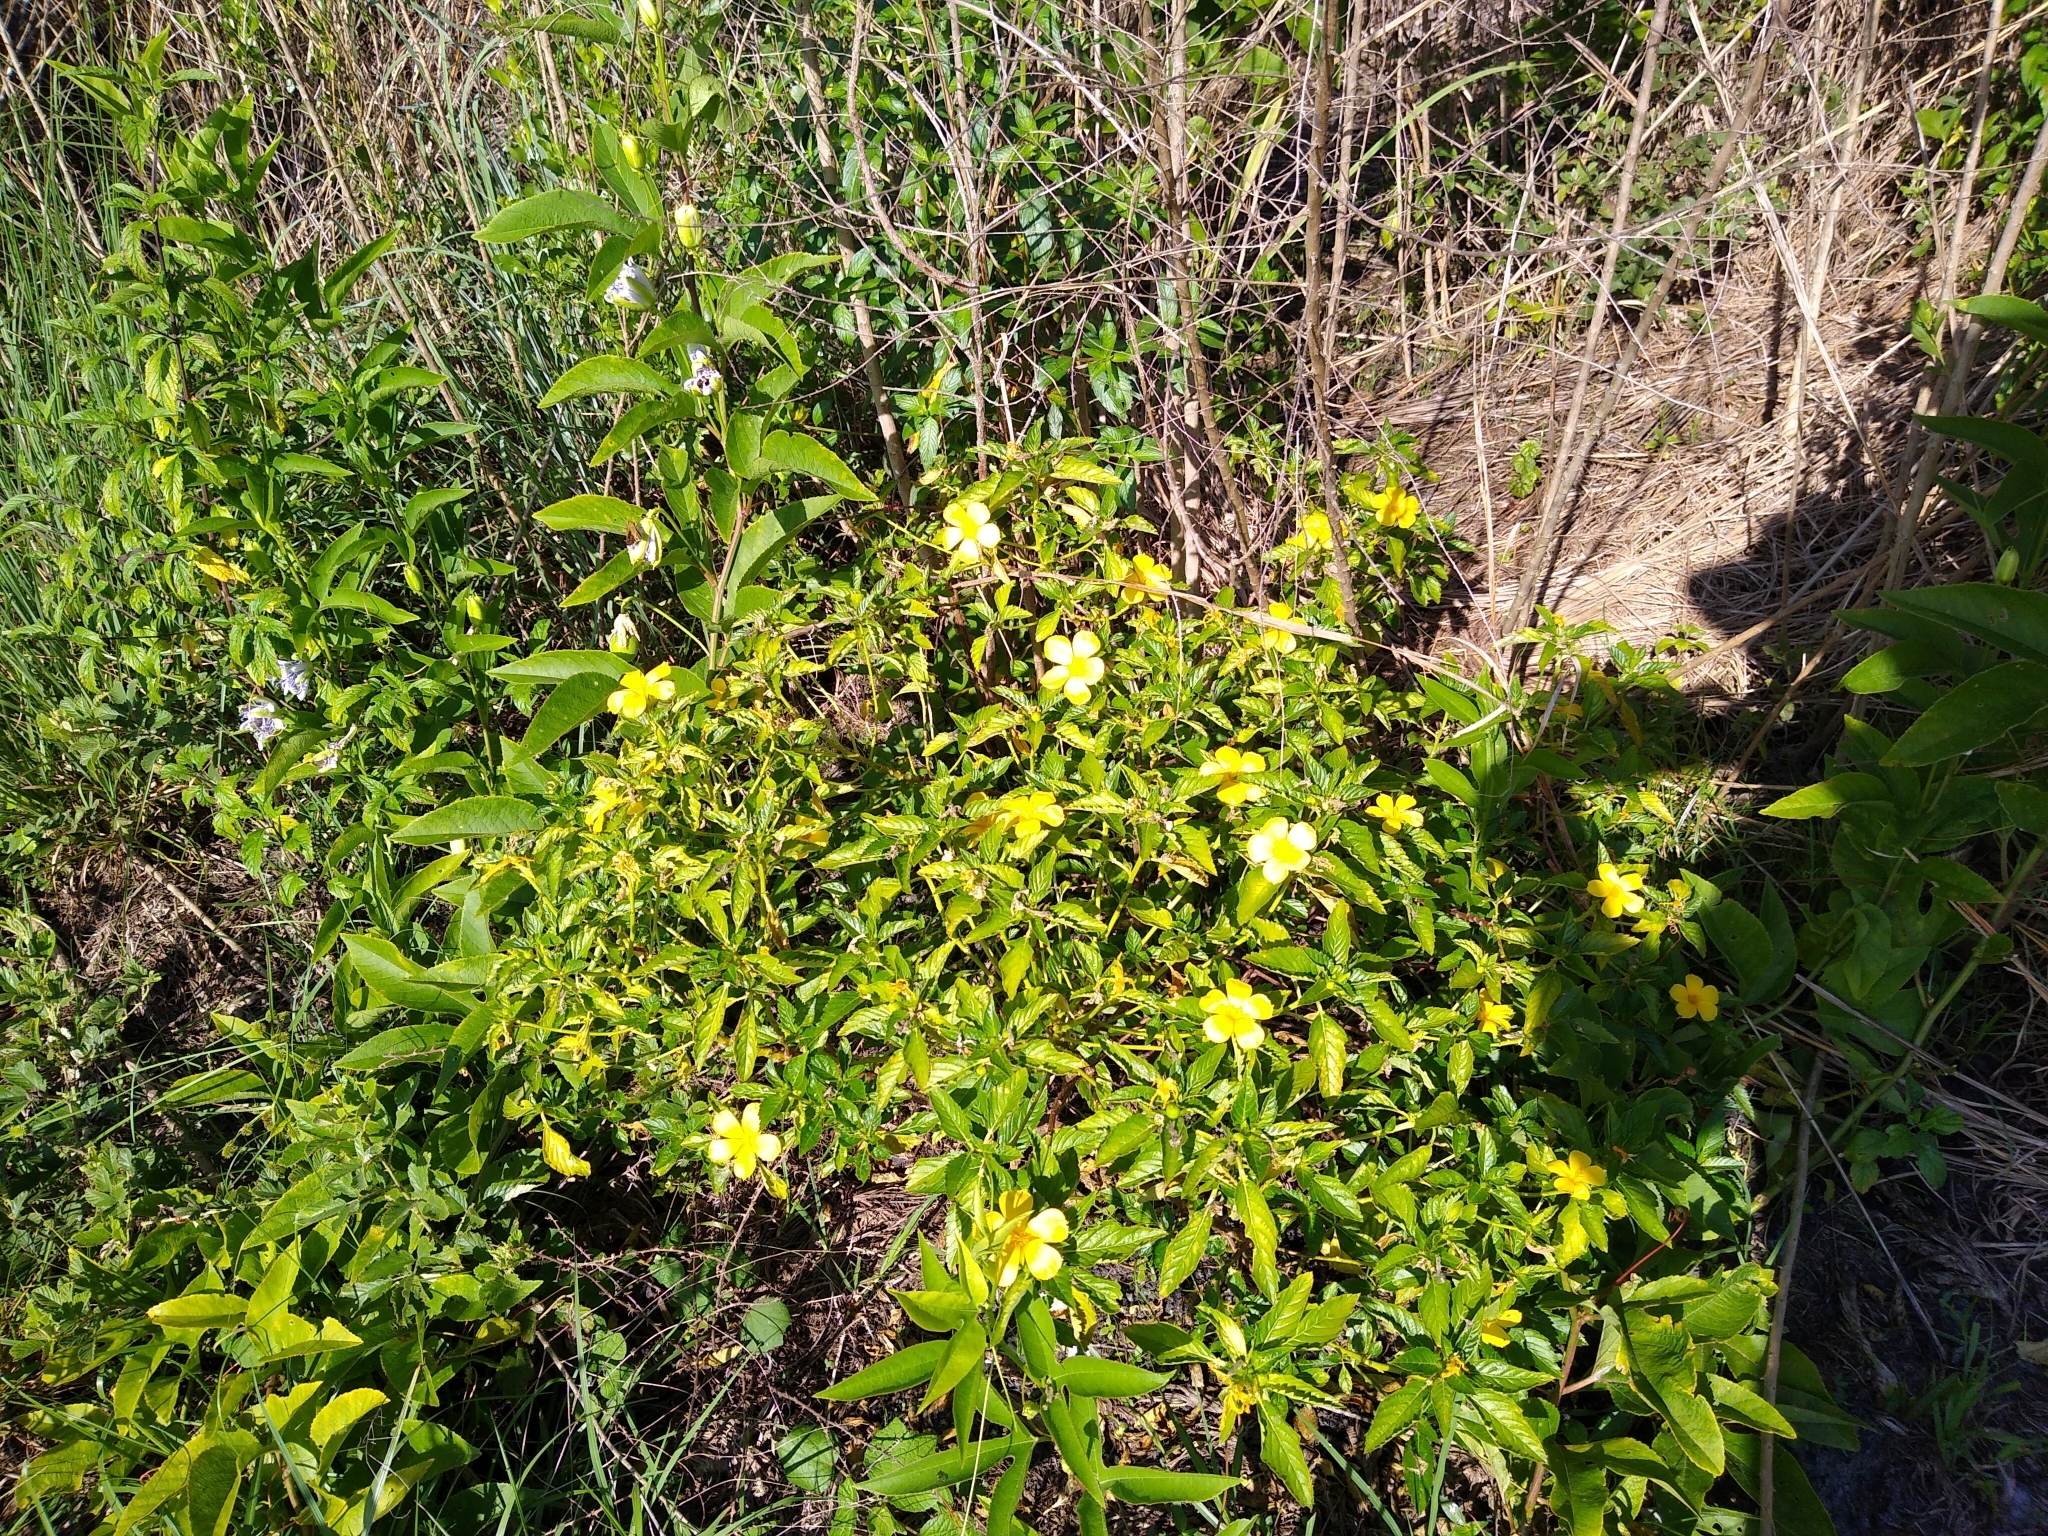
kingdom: Plantae
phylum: Tracheophyta
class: Magnoliopsida
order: Malpighiales
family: Turneraceae
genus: Turnera
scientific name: Turnera ulmifolia
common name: Ramgoat dashalong
